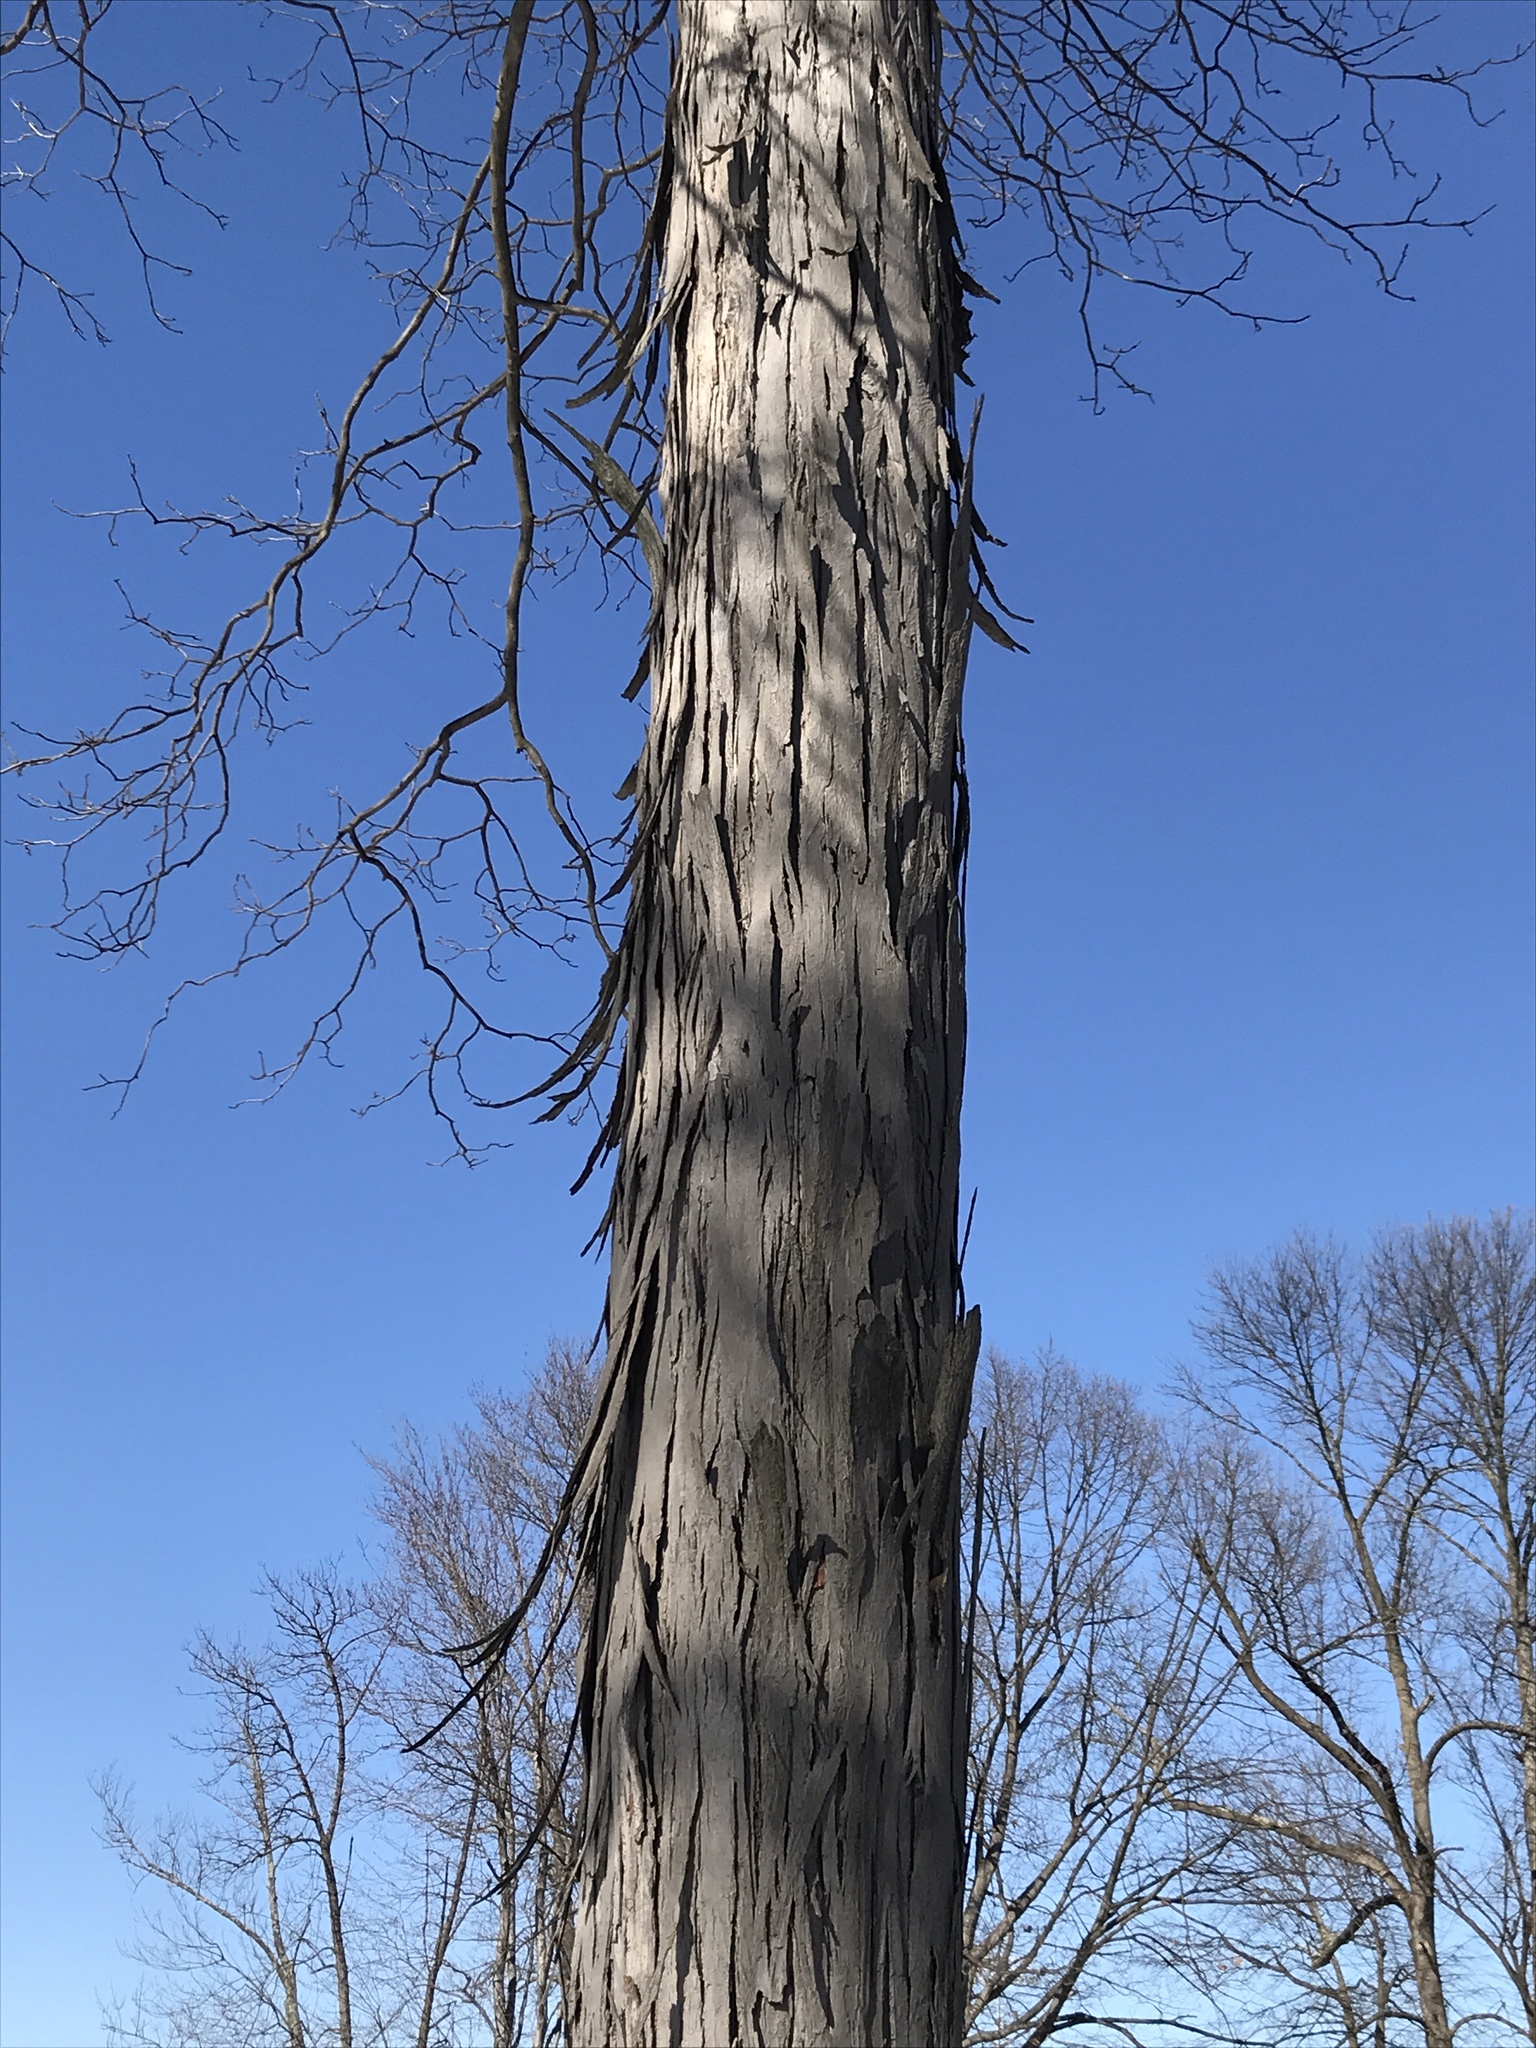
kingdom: Plantae
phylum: Tracheophyta
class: Magnoliopsida
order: Fagales
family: Juglandaceae
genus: Carya
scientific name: Carya ovata
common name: Shagbark hickory
